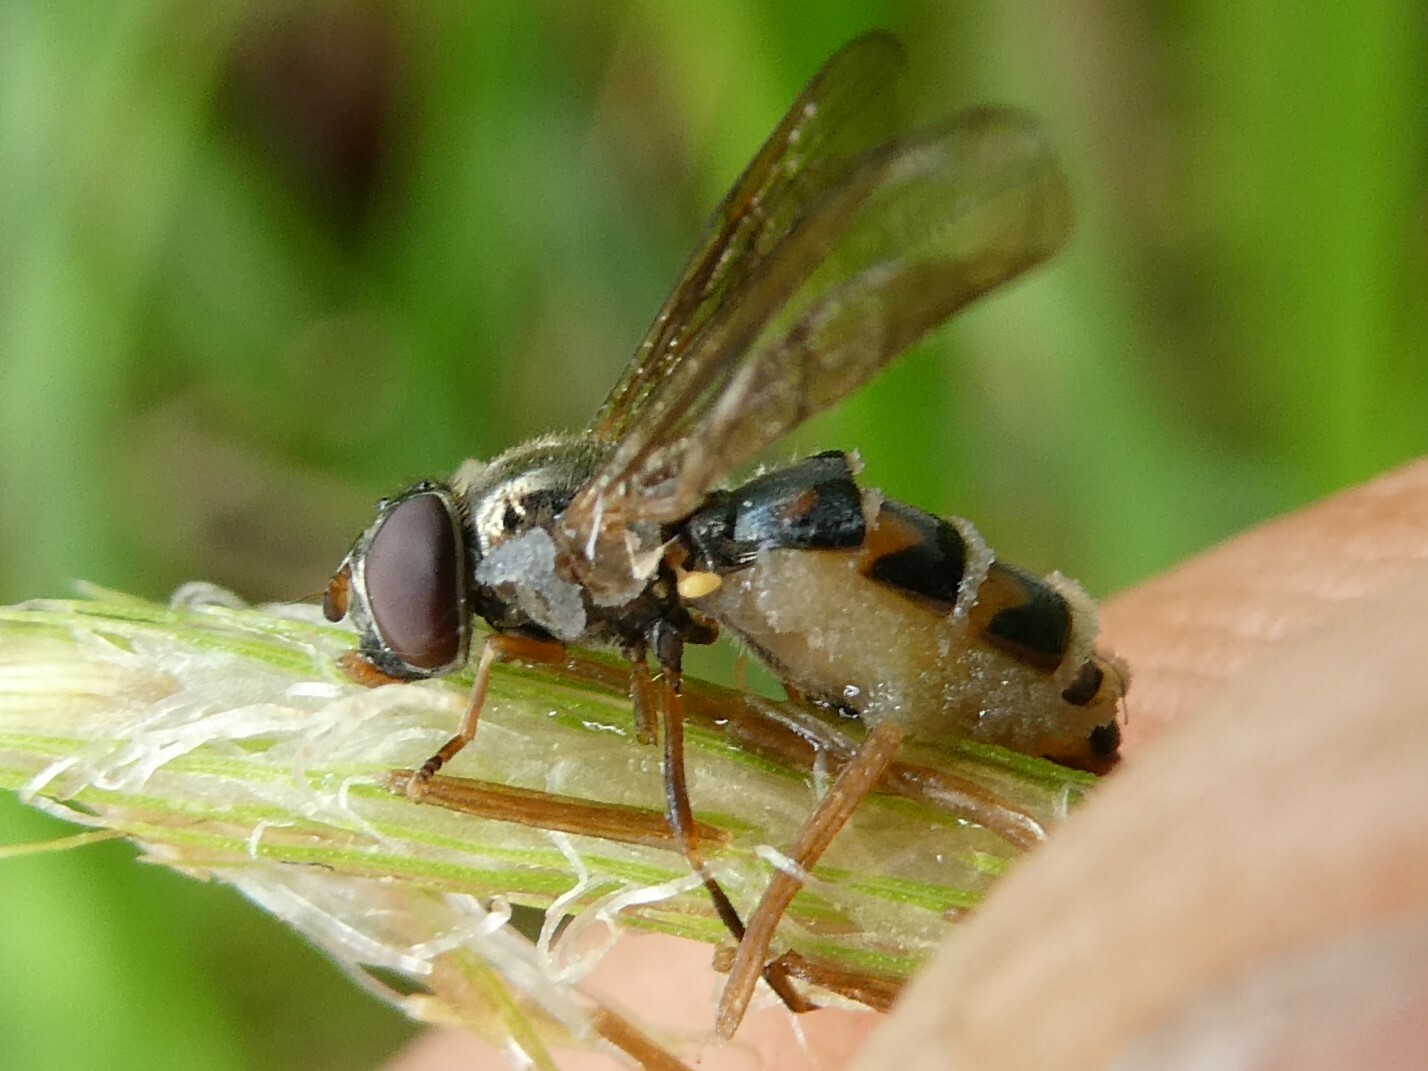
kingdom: Animalia
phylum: Arthropoda
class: Insecta
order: Diptera
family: Syrphidae
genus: Melanostoma
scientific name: Melanostoma mellina
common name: Hover fly
